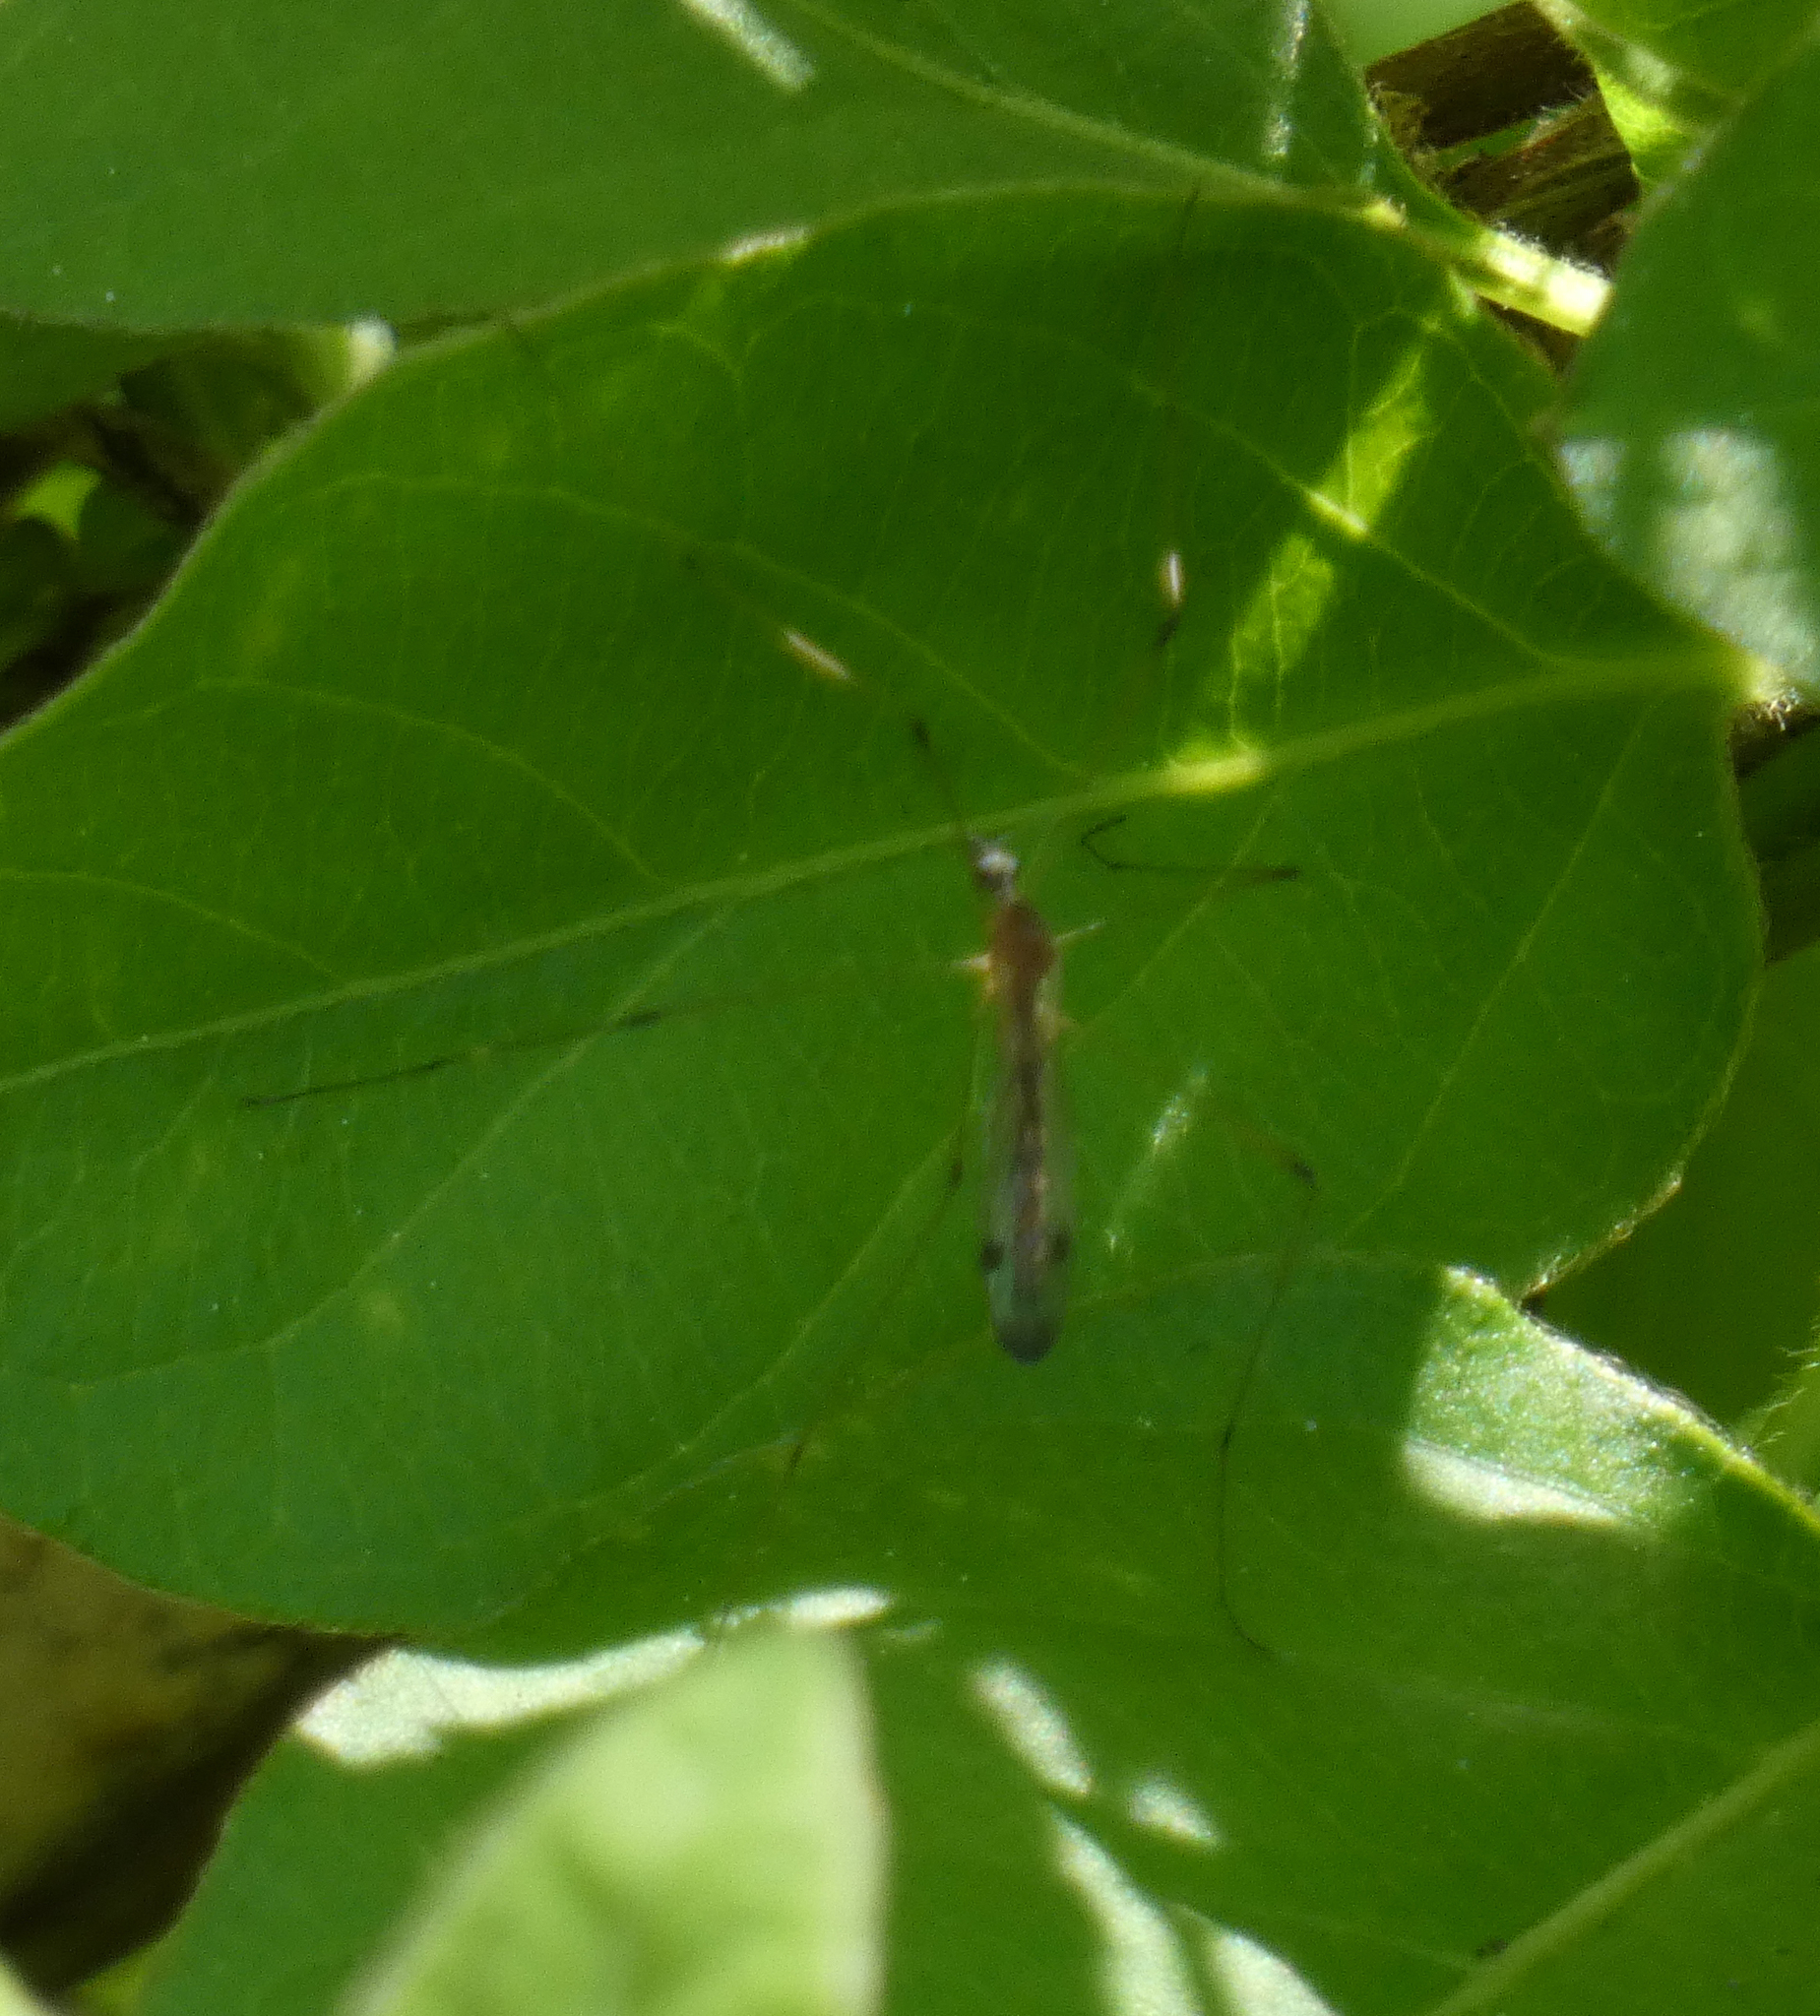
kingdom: Animalia
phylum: Arthropoda
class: Insecta
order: Diptera
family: Limoniidae
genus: Helius
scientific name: Helius flavipes
